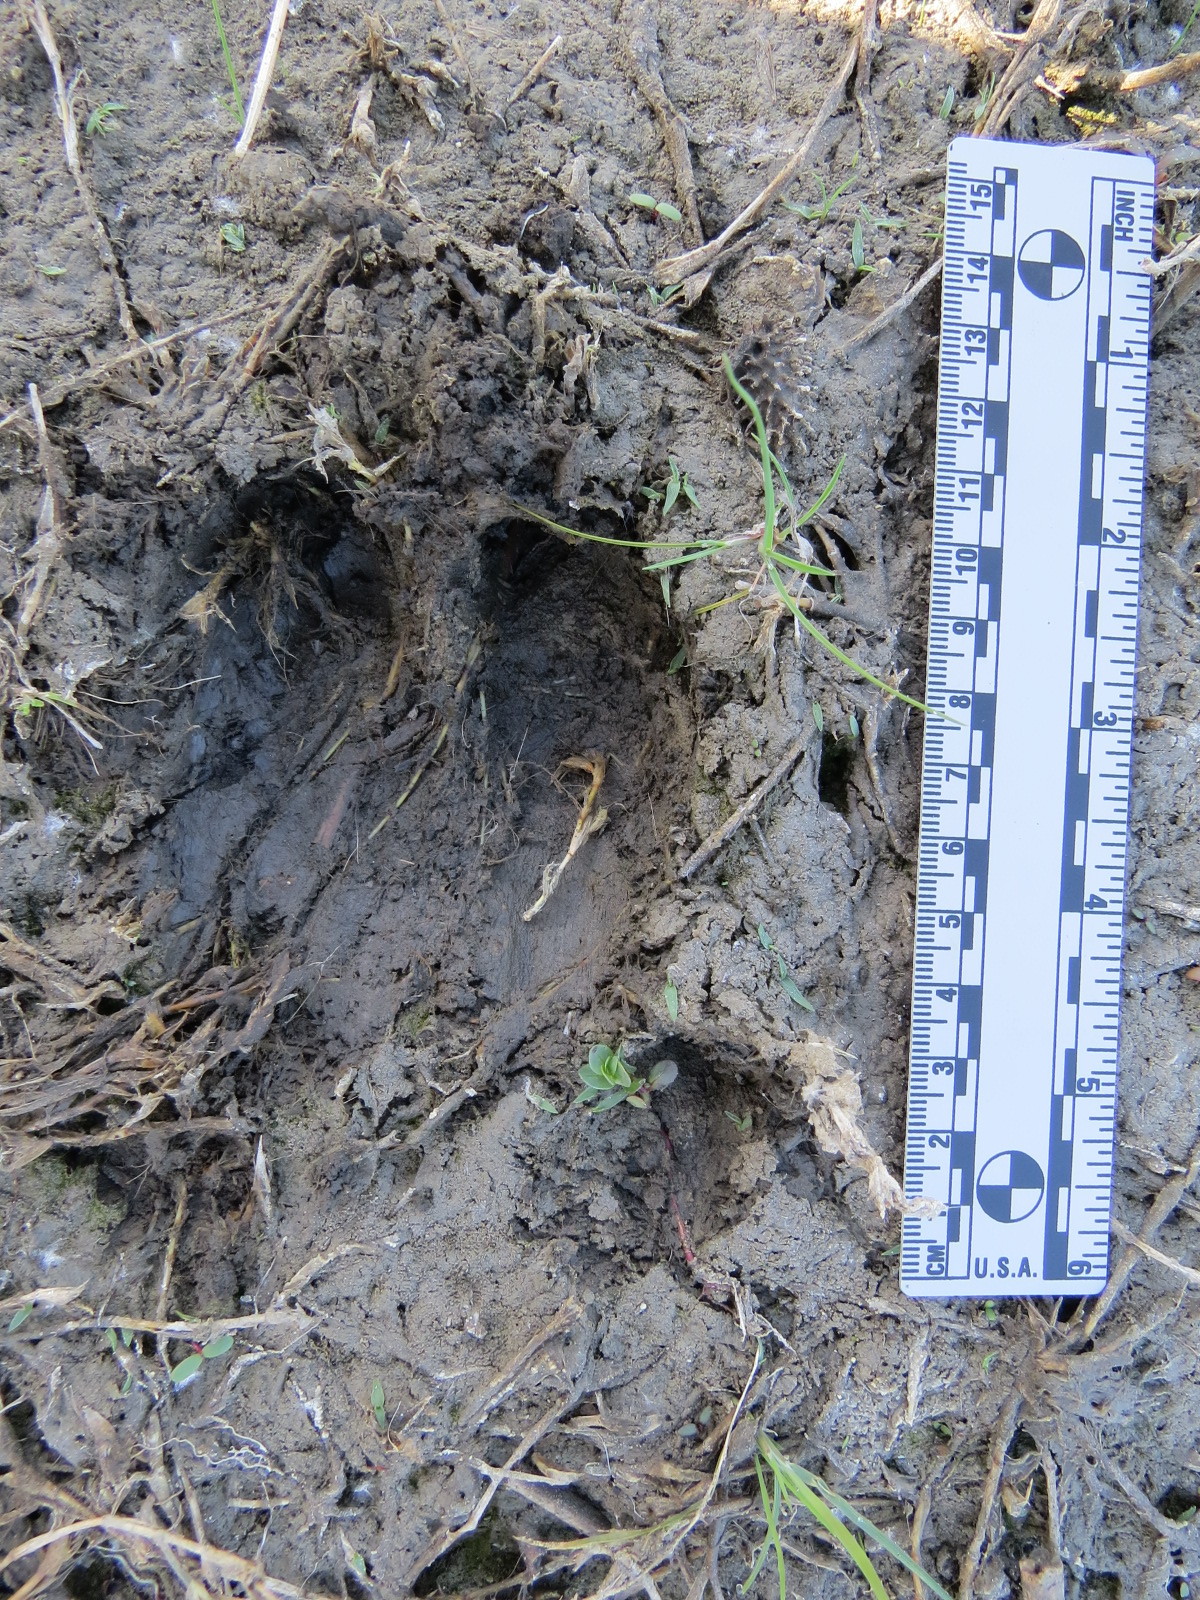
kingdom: Animalia
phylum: Chordata
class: Mammalia
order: Artiodactyla
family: Suidae
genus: Sus
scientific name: Sus scrofa
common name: Wild boar
